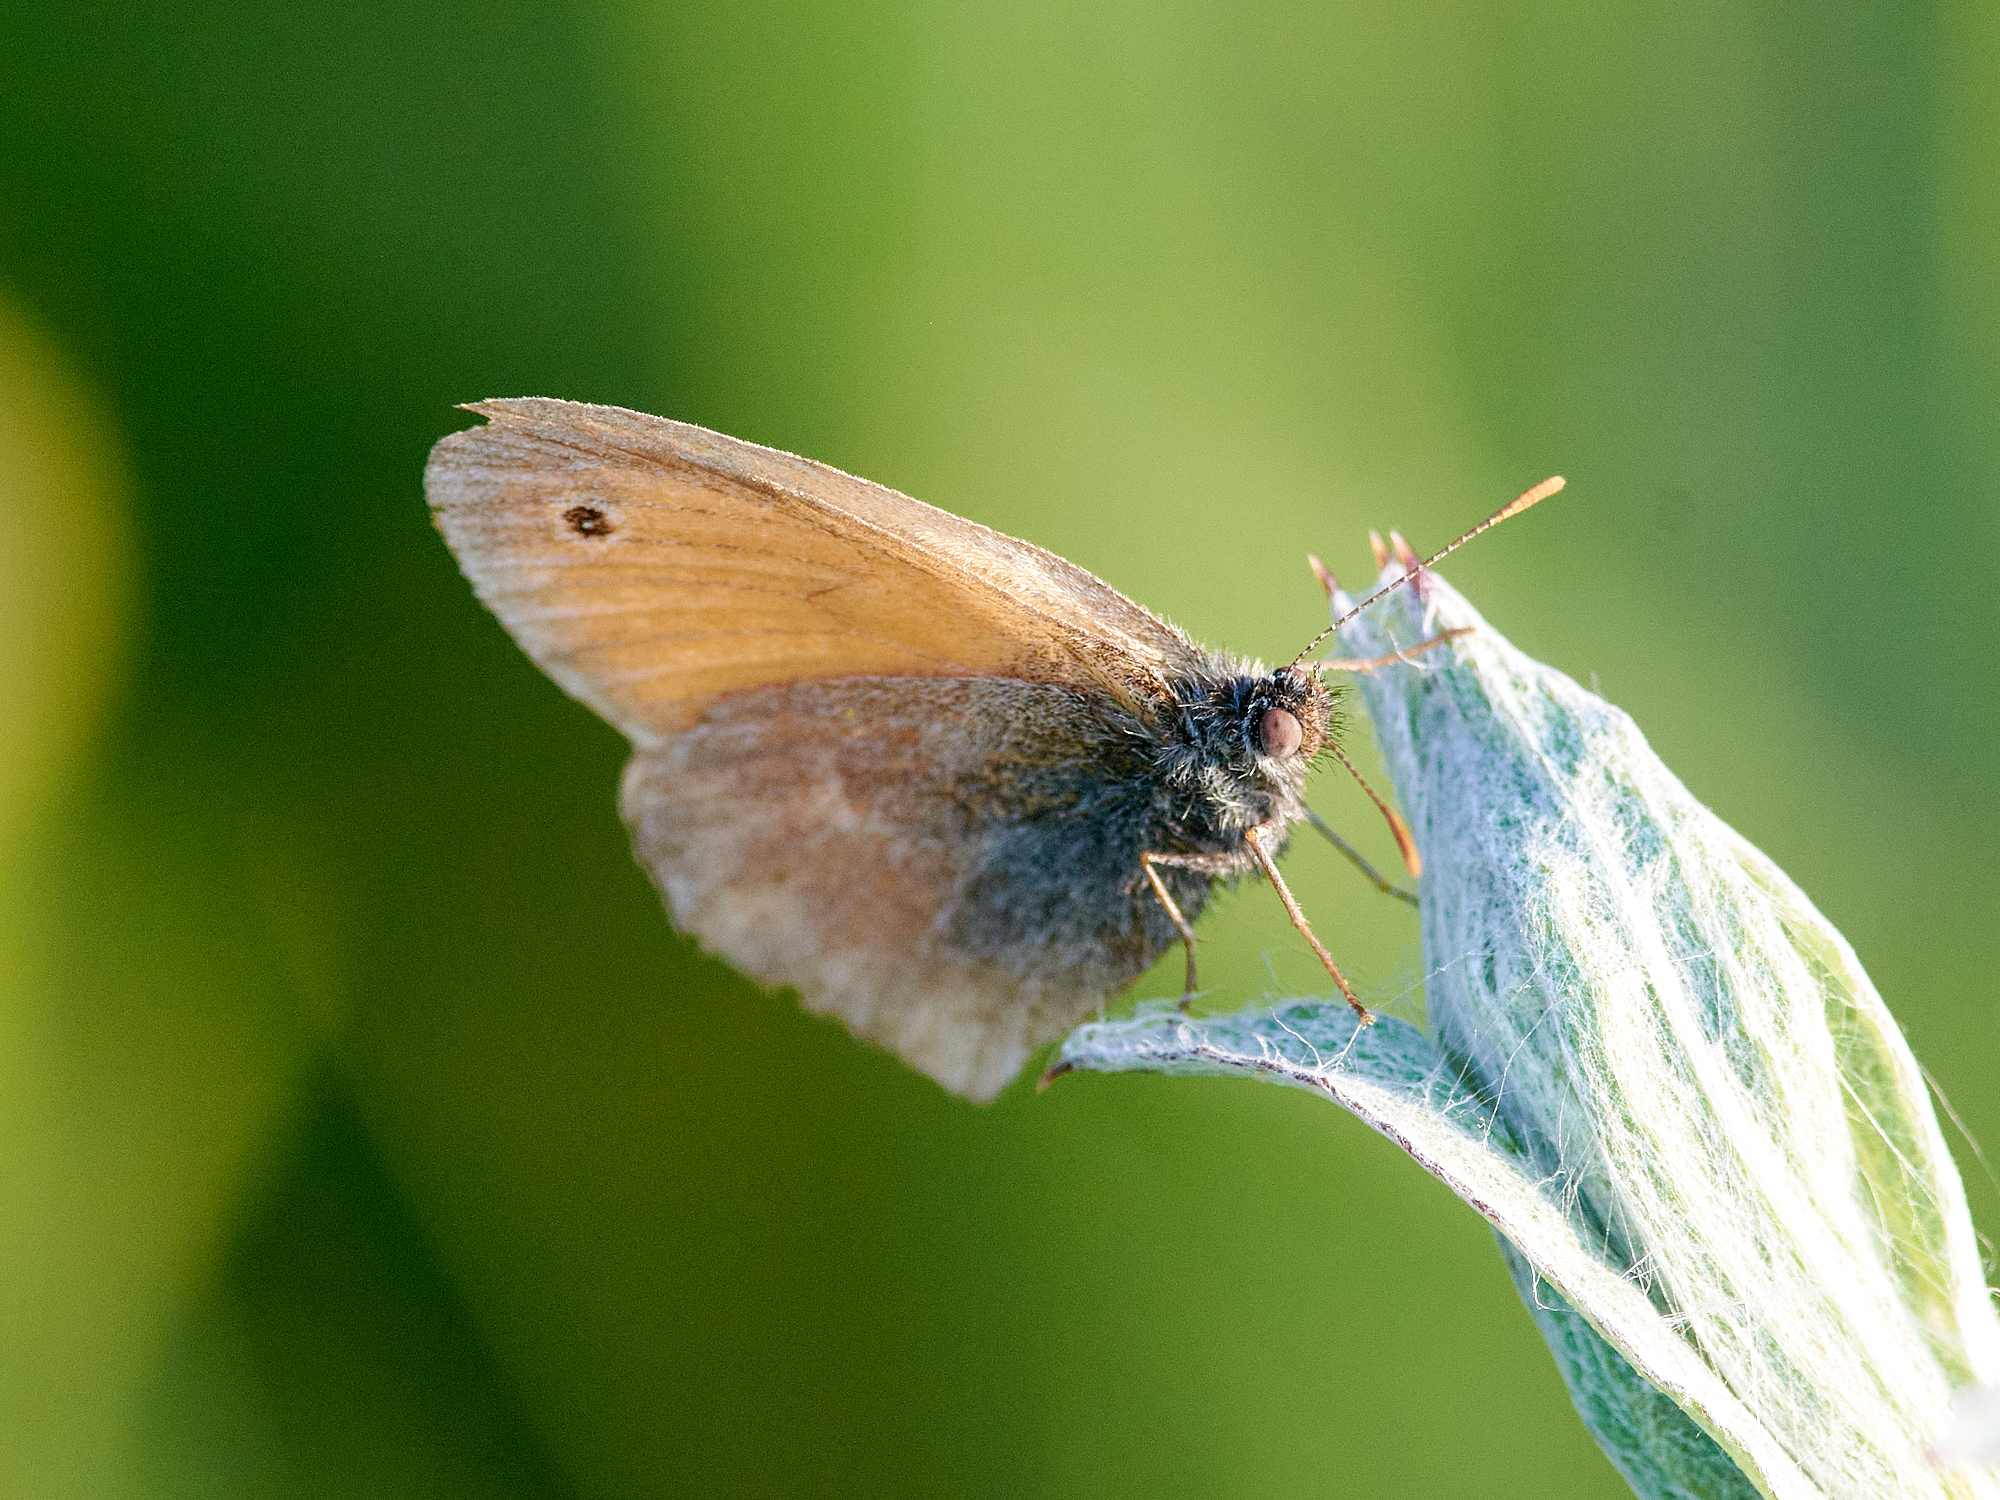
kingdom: Animalia
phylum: Arthropoda
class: Insecta
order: Lepidoptera
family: Nymphalidae
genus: Coenonympha
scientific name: Coenonympha pamphilus
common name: Small heath
